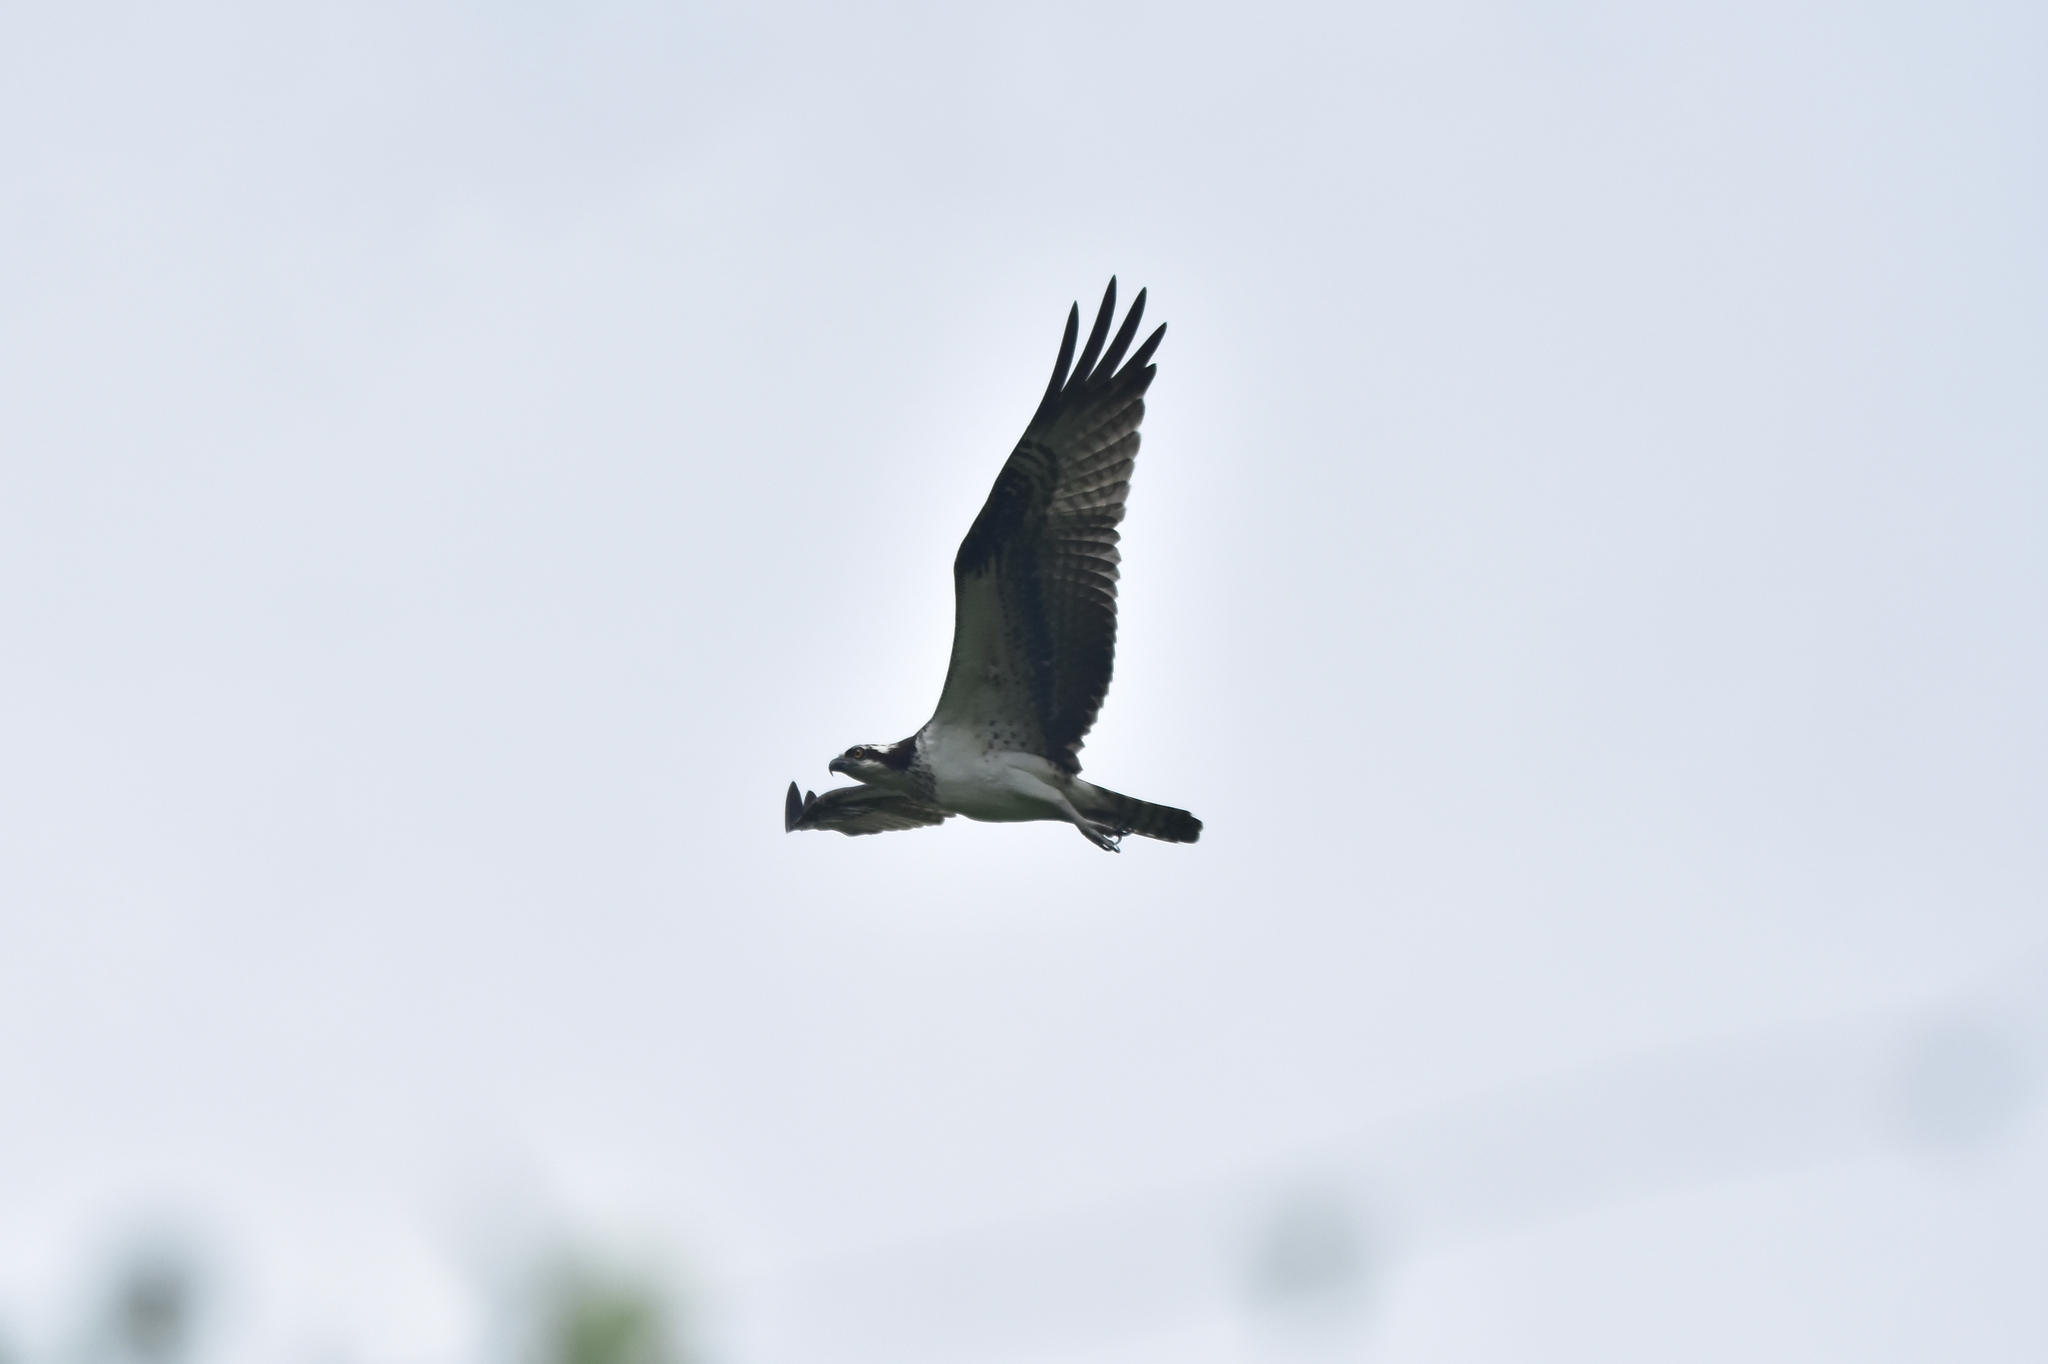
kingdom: Animalia
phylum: Chordata
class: Aves
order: Accipitriformes
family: Pandionidae
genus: Pandion
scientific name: Pandion haliaetus
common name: Osprey
